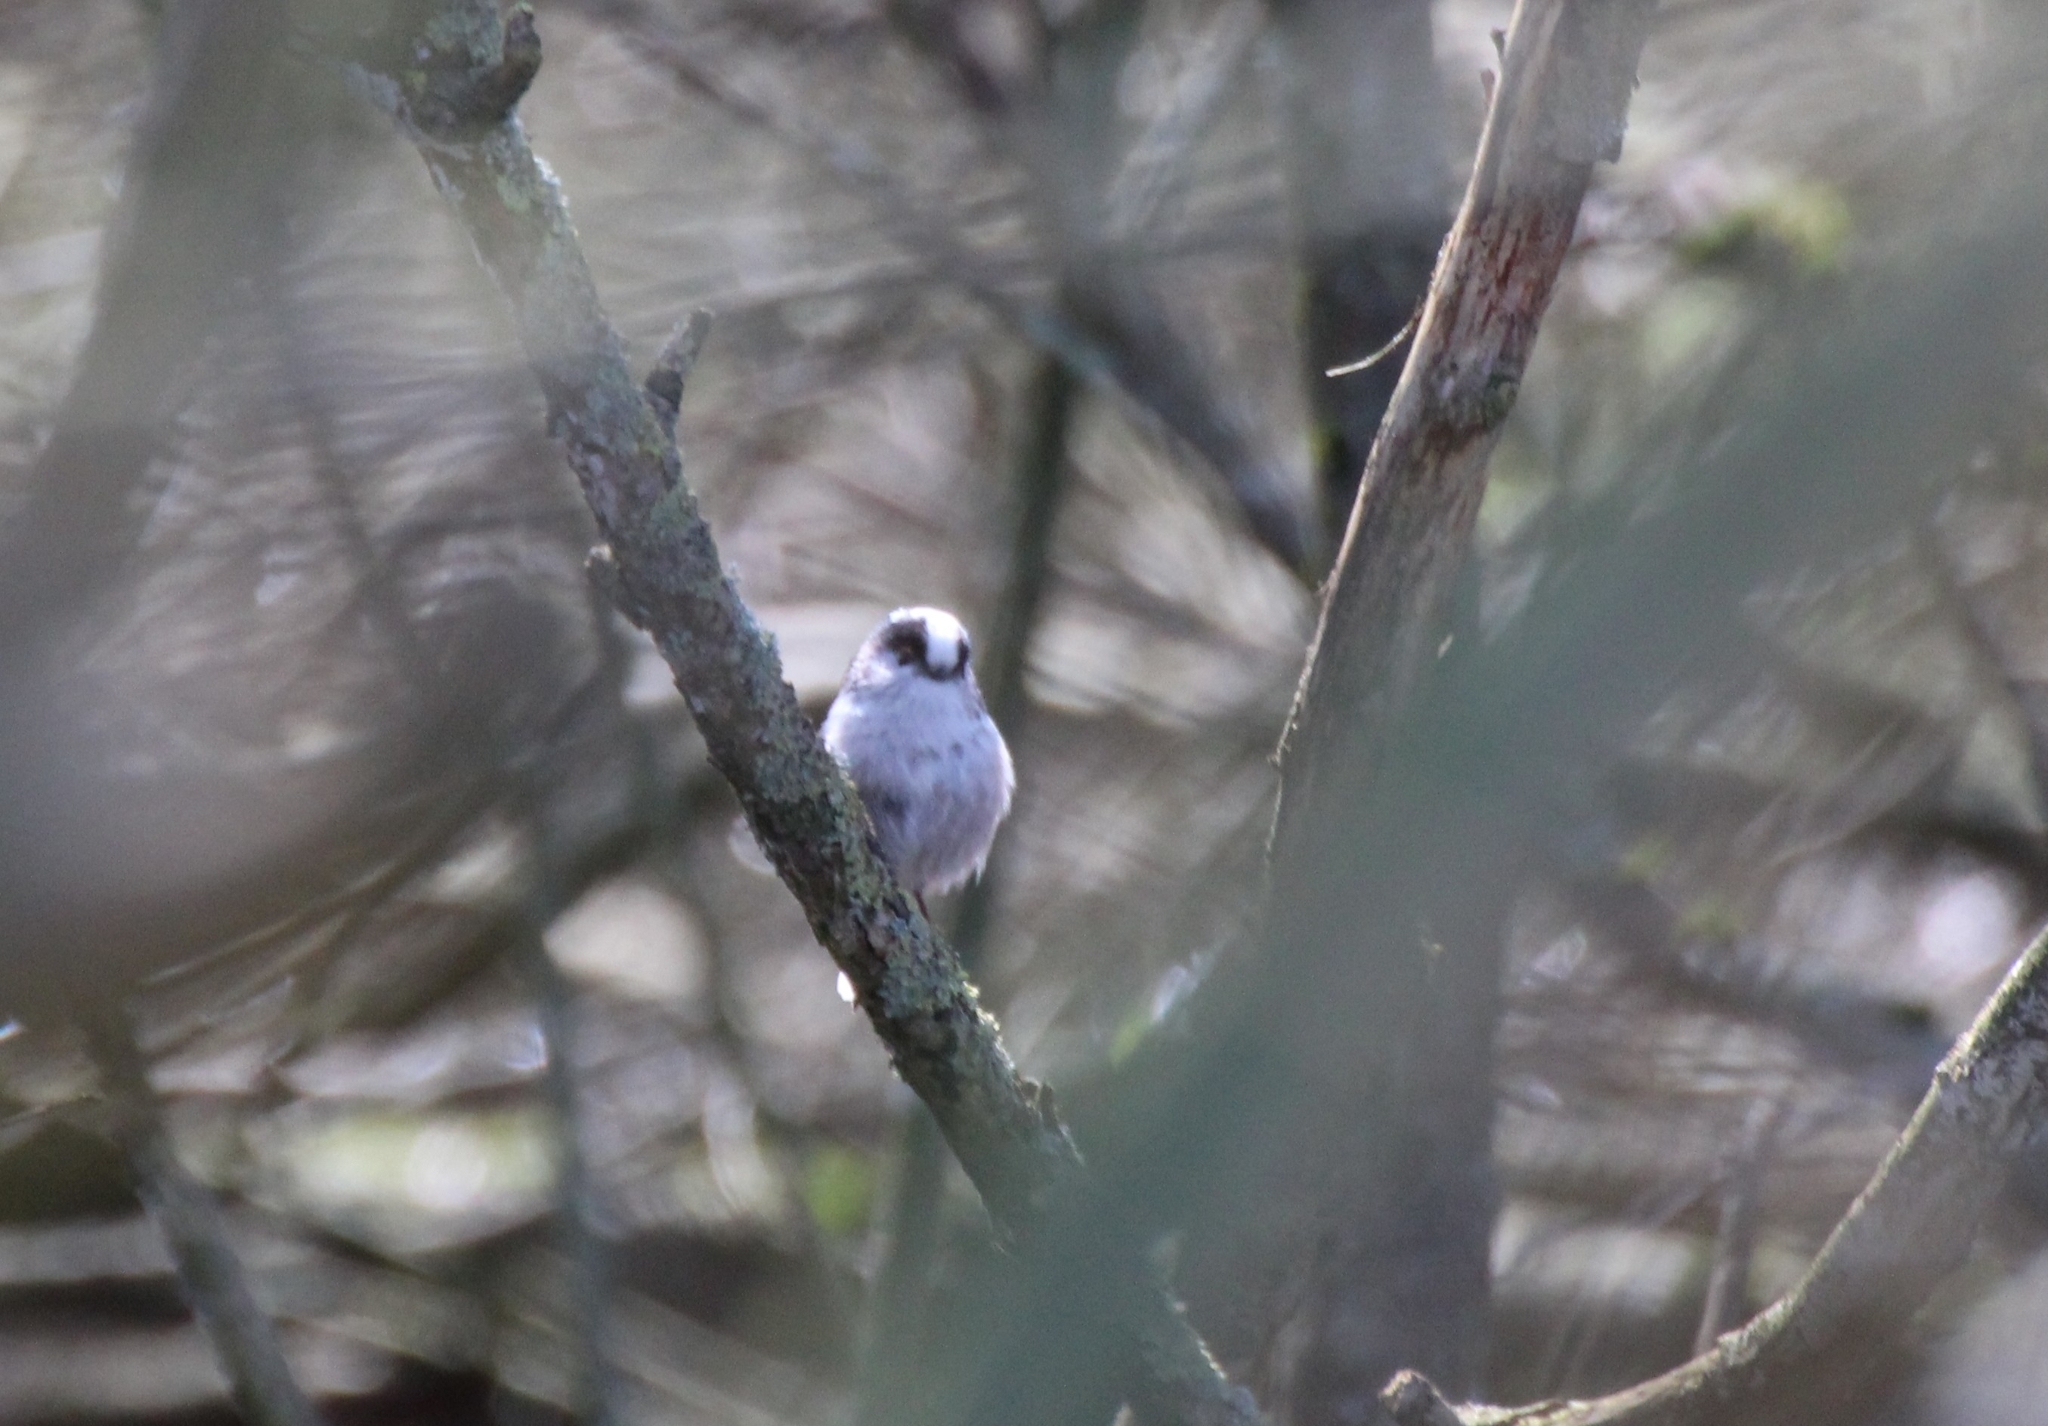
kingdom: Animalia
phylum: Chordata
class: Aves
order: Passeriformes
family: Aegithalidae
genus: Aegithalos
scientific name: Aegithalos caudatus
